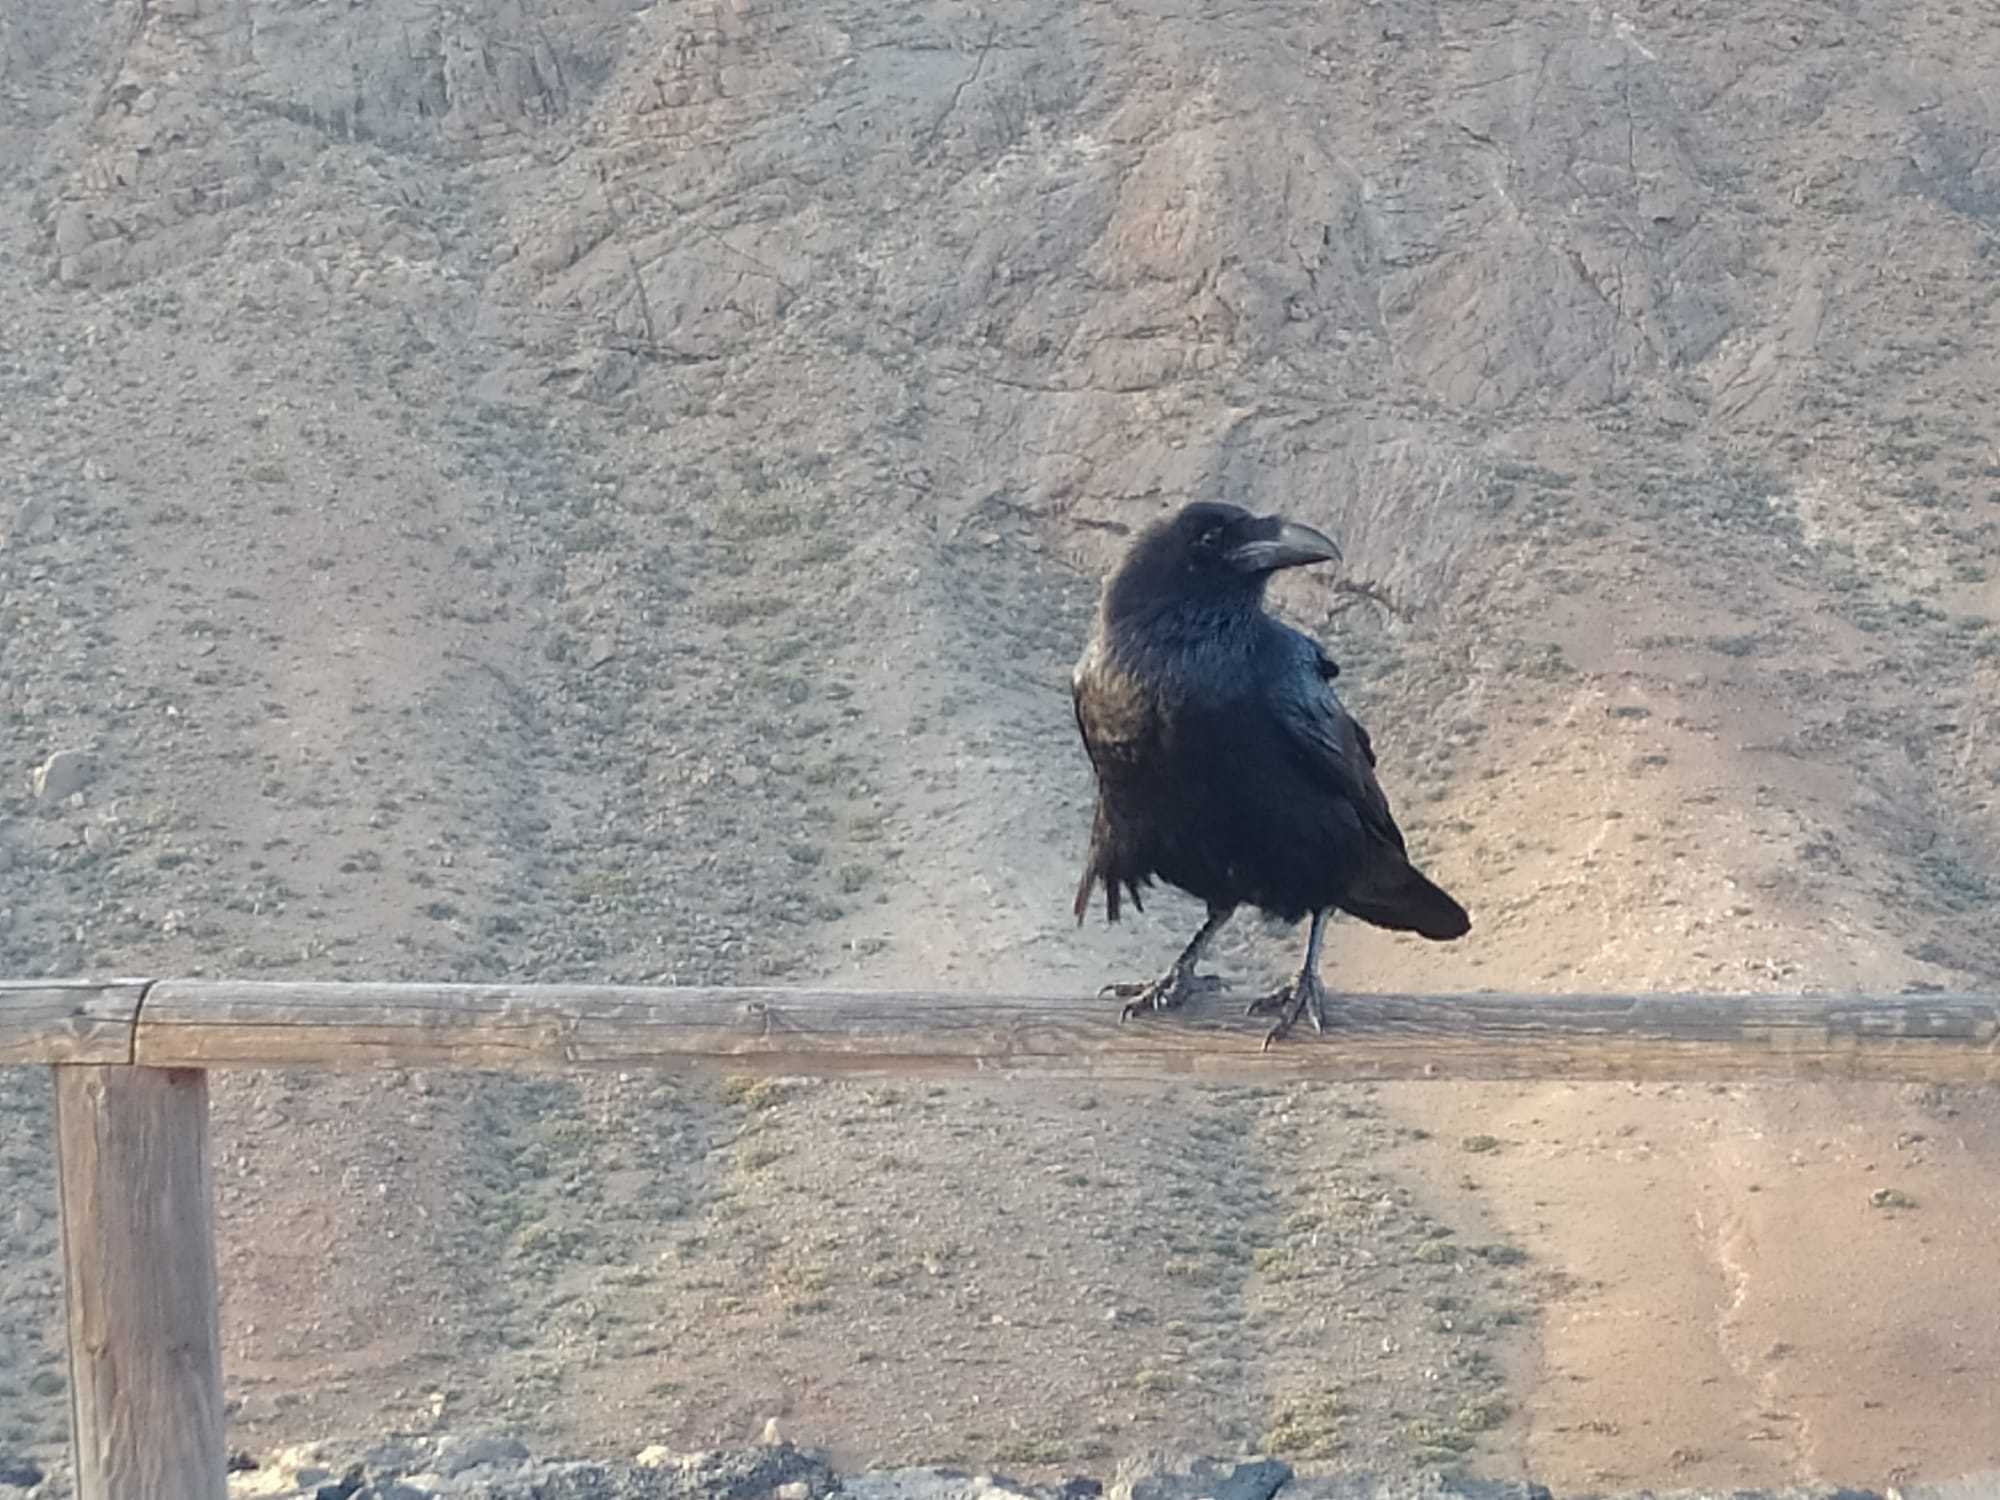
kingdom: Animalia
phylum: Chordata
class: Aves
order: Passeriformes
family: Corvidae
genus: Corvus
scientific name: Corvus corax
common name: Common raven
